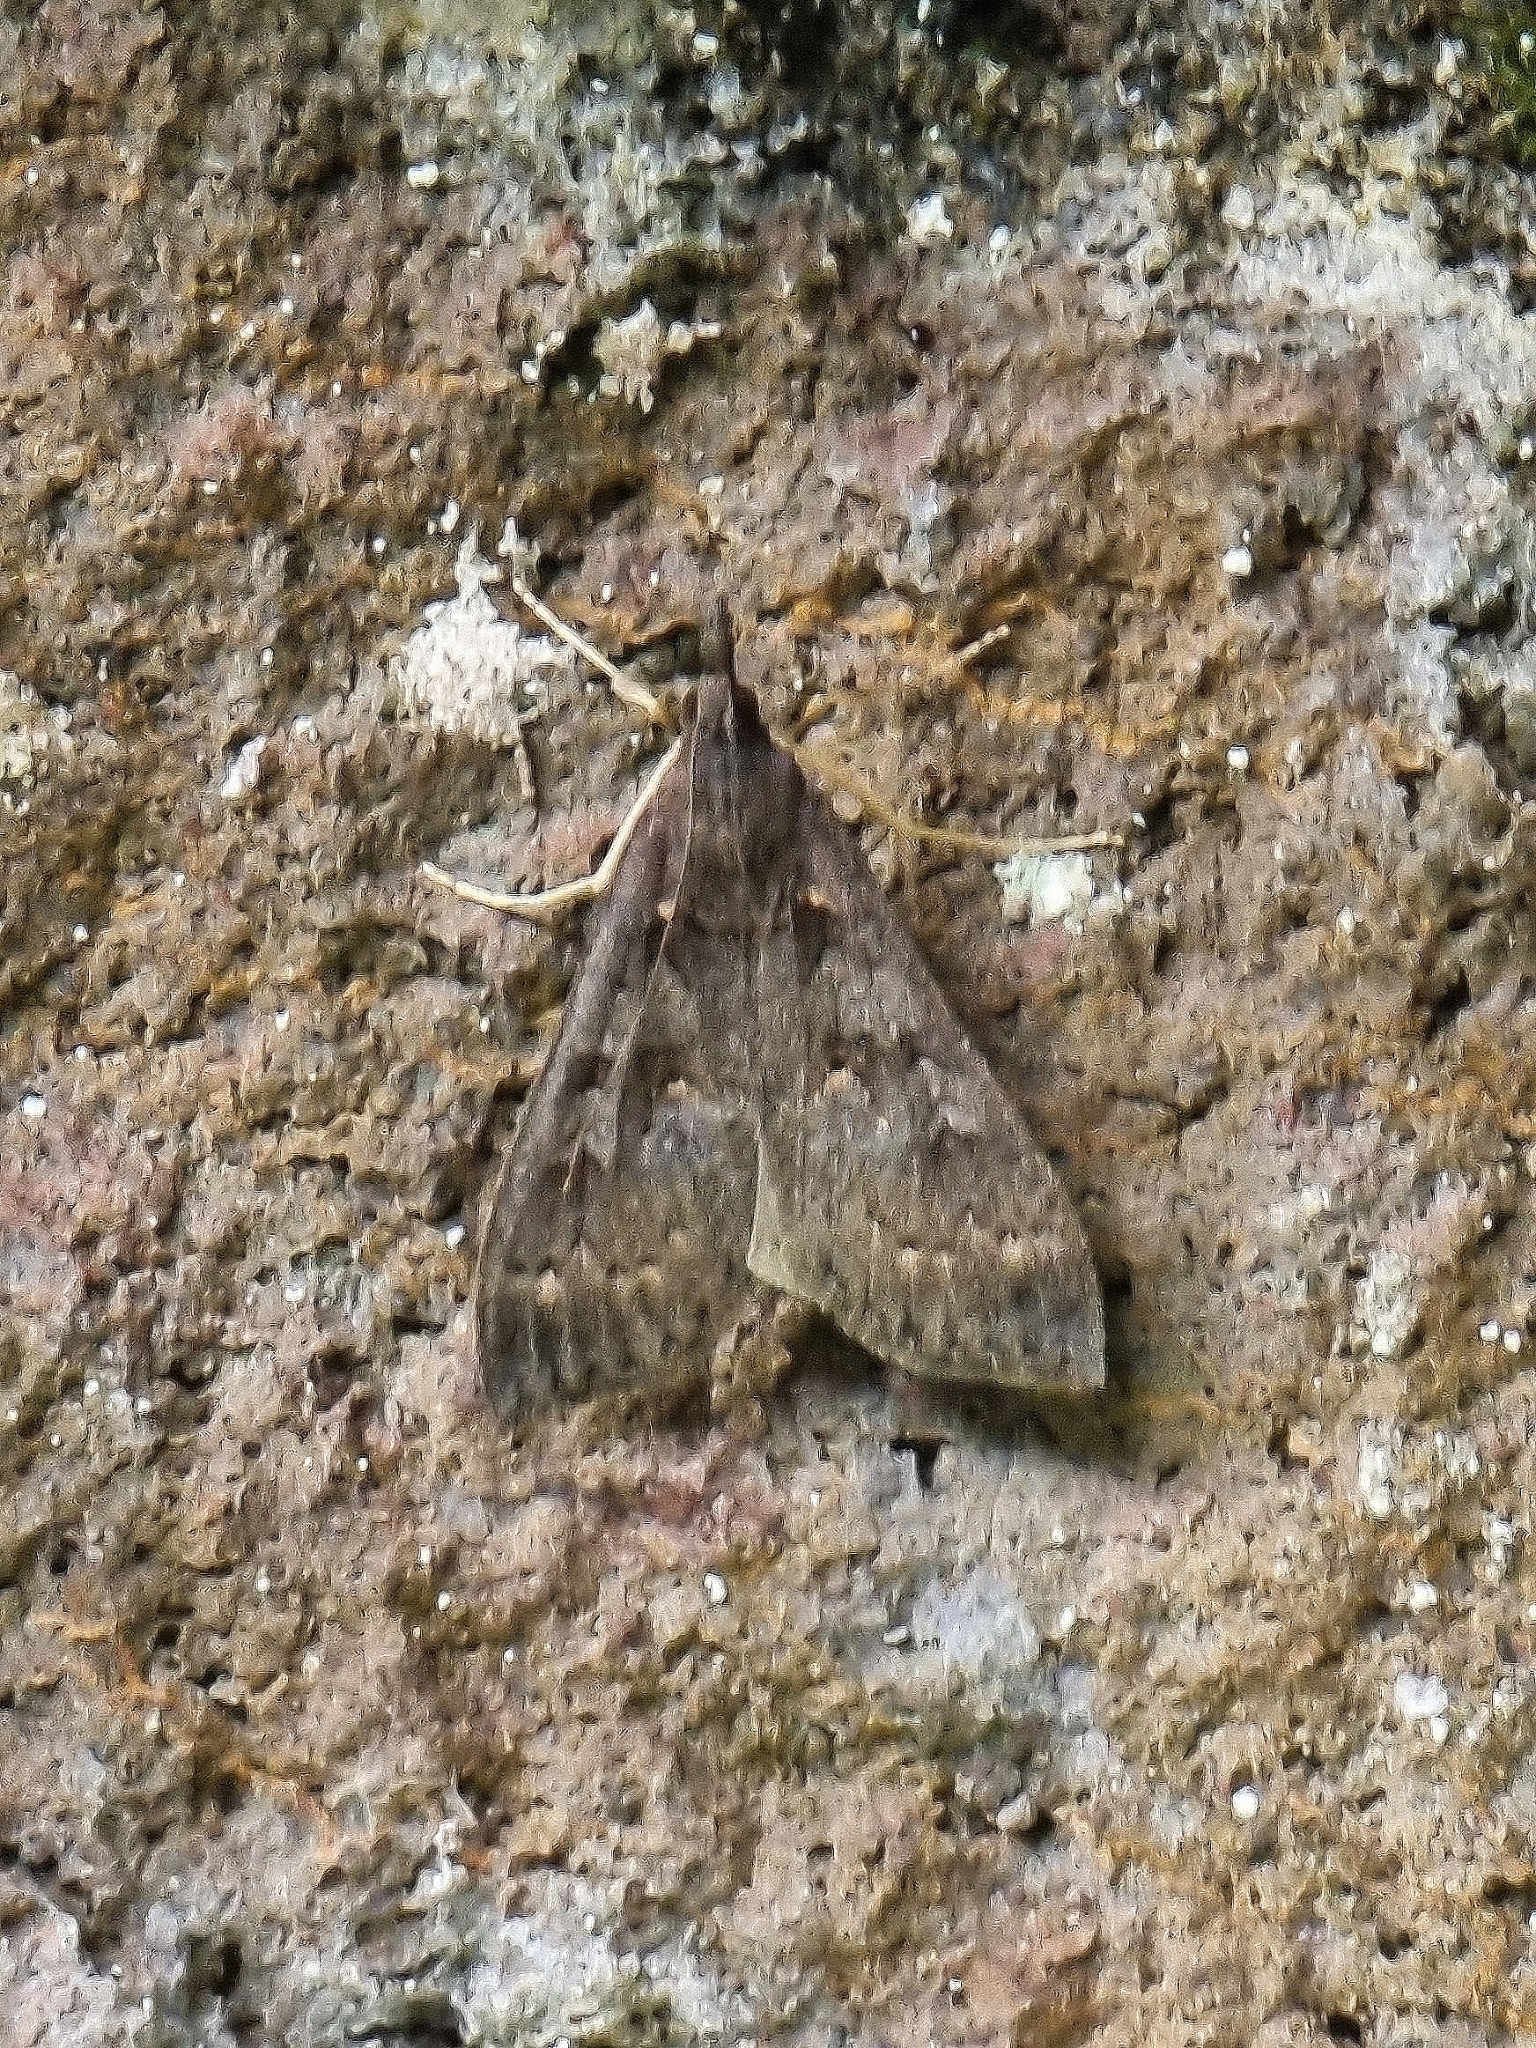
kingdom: Animalia
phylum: Arthropoda
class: Insecta
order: Lepidoptera
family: Crambidae
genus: Mecyna
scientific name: Mecyna asinalis
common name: Coastal pearl
